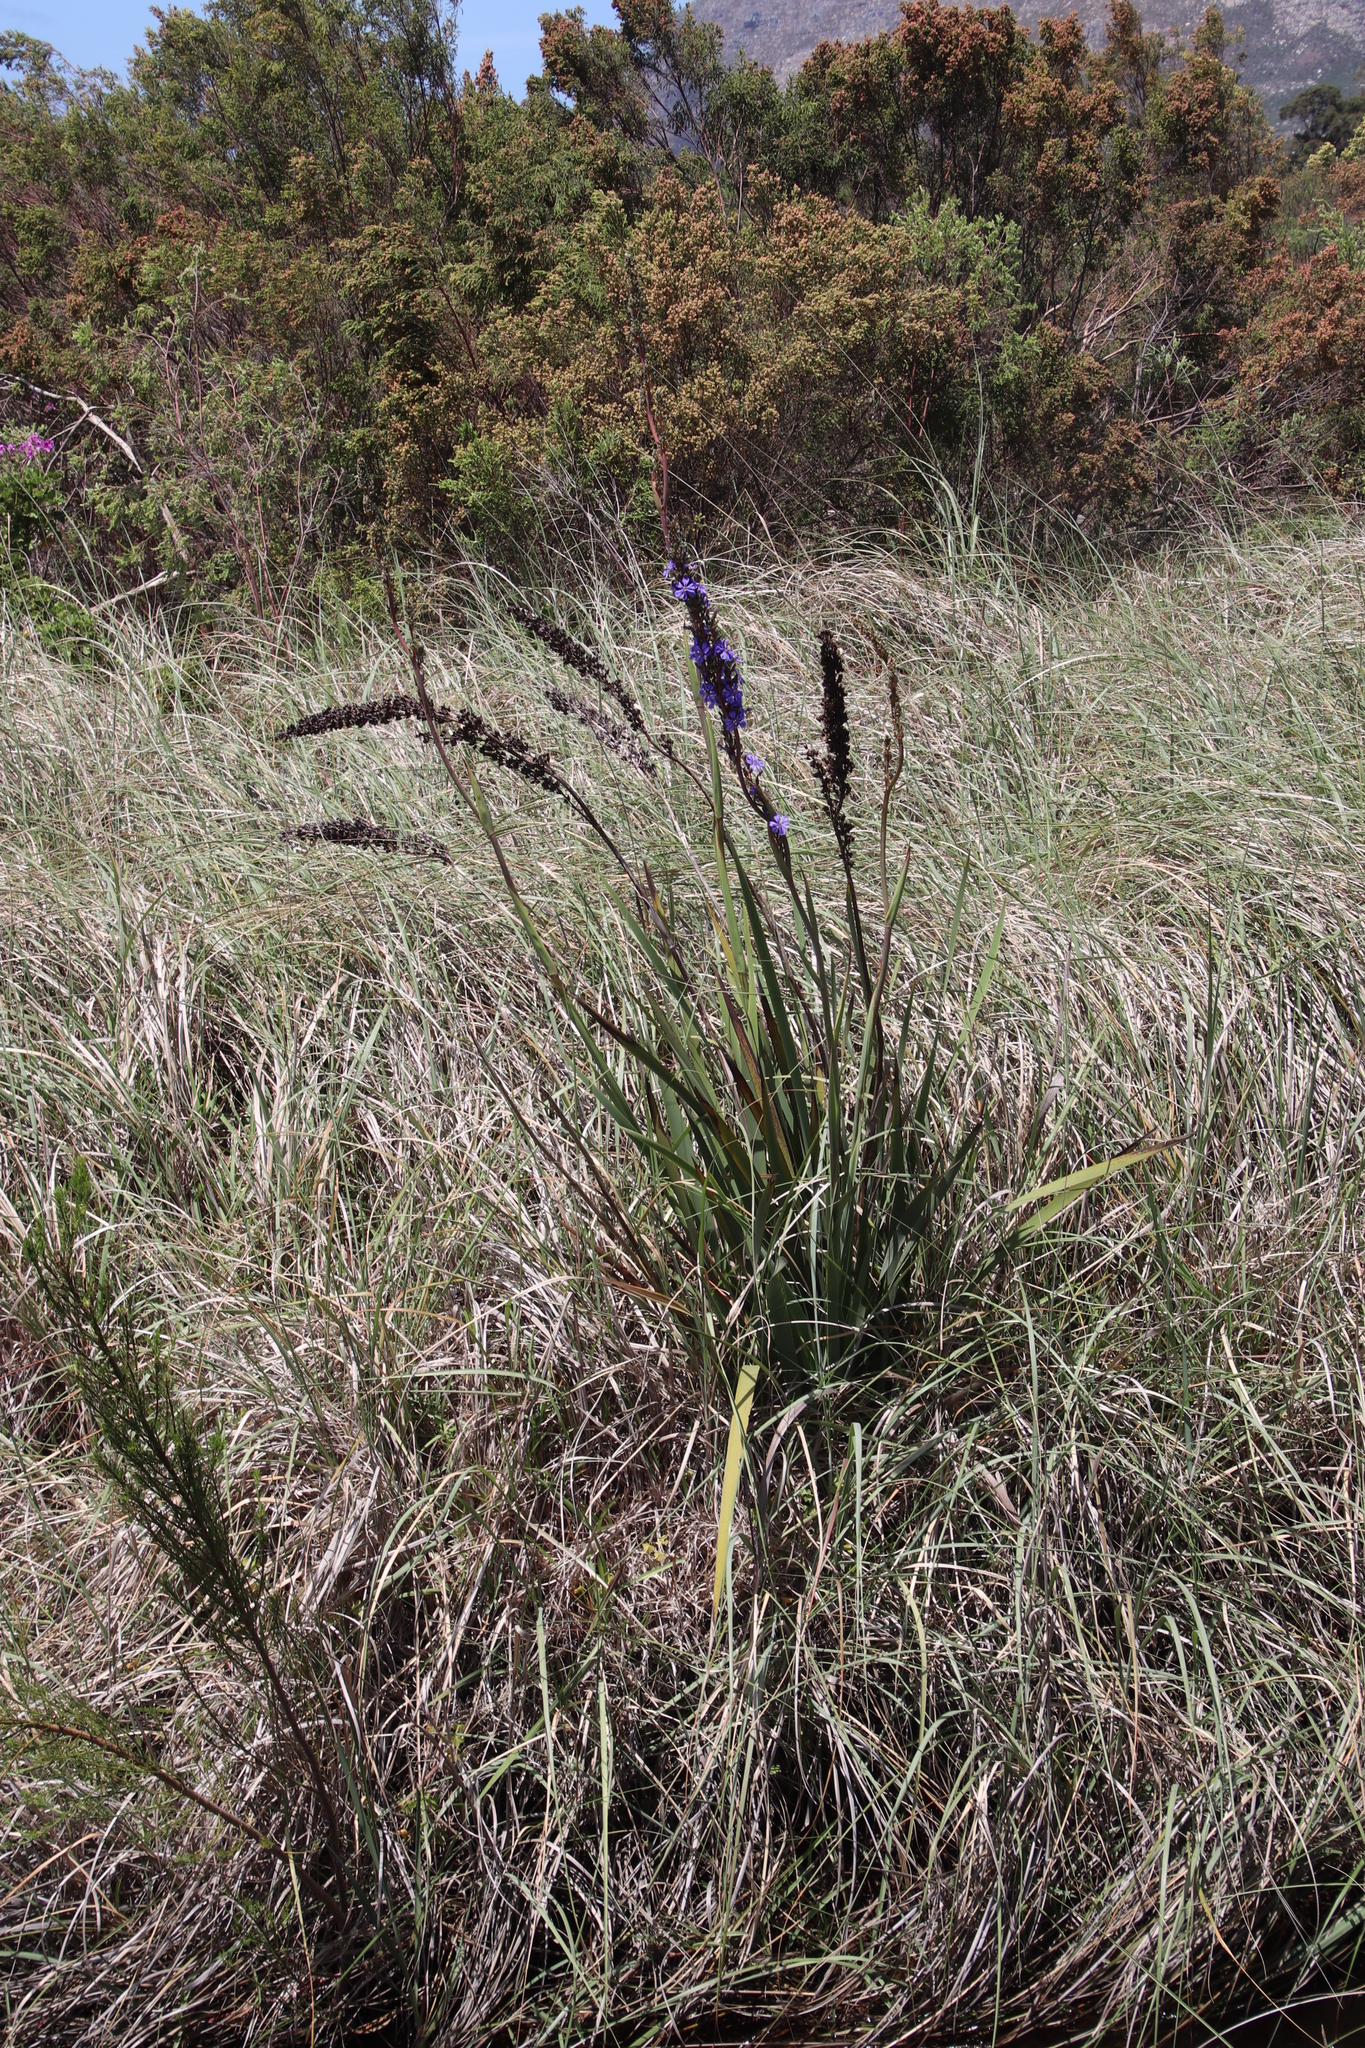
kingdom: Plantae
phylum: Tracheophyta
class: Liliopsida
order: Asparagales
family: Iridaceae
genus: Aristea
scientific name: Aristea capitata
